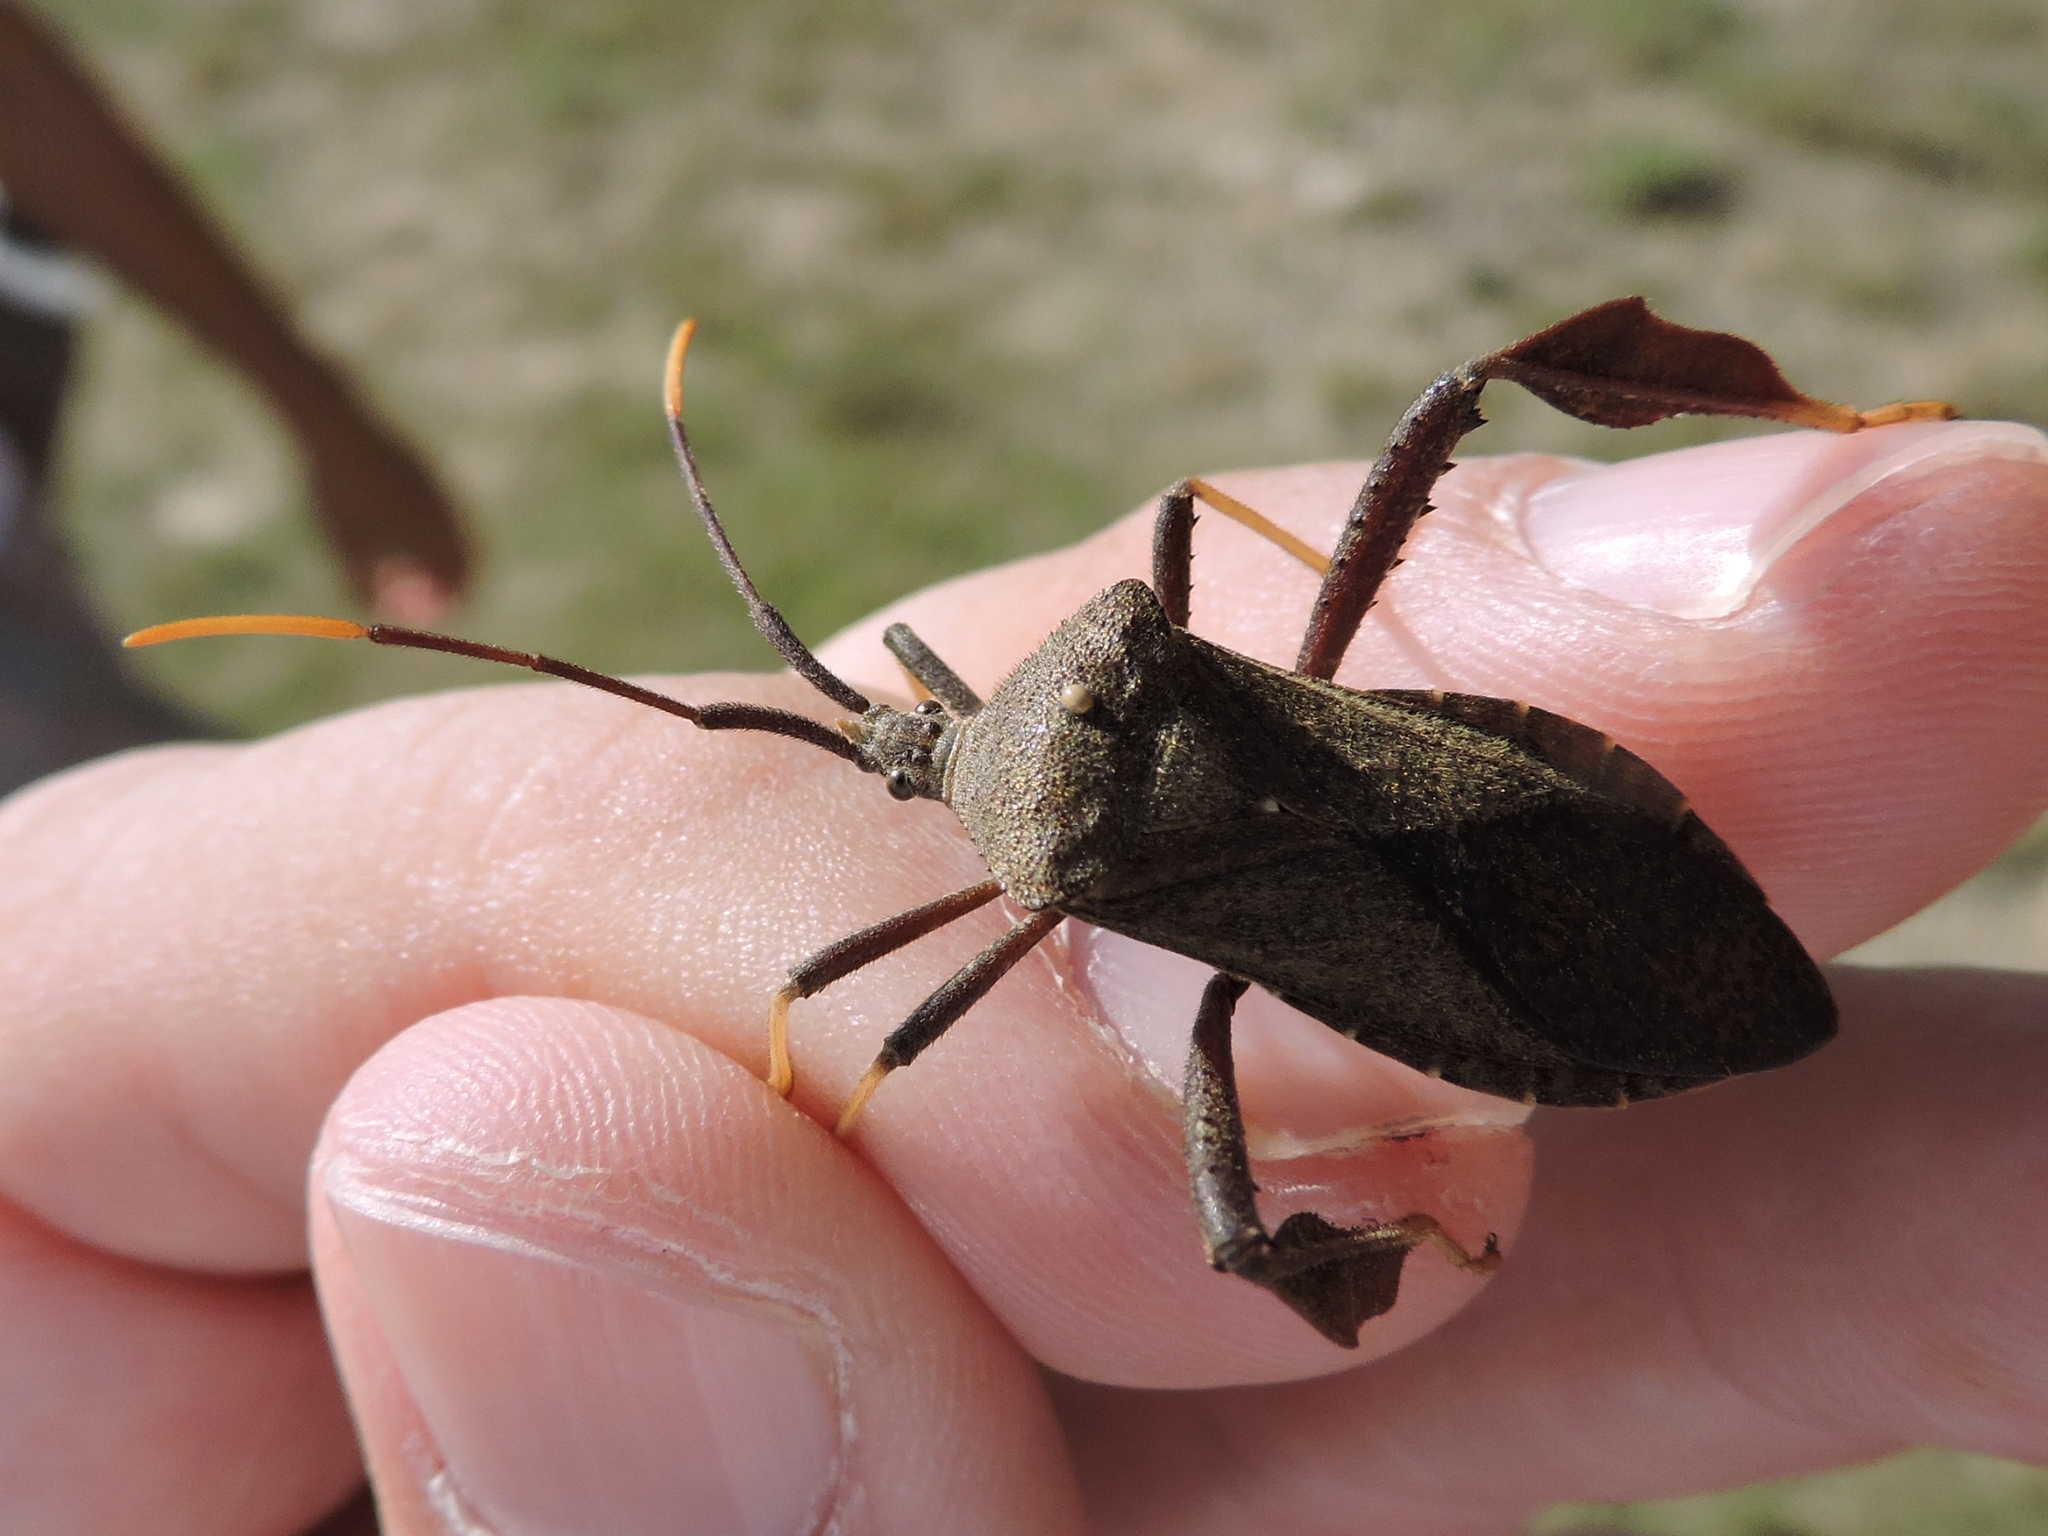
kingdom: Animalia
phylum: Arthropoda
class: Insecta
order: Hemiptera
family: Coreidae
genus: Acanthocephala
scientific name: Acanthocephala terminalis
